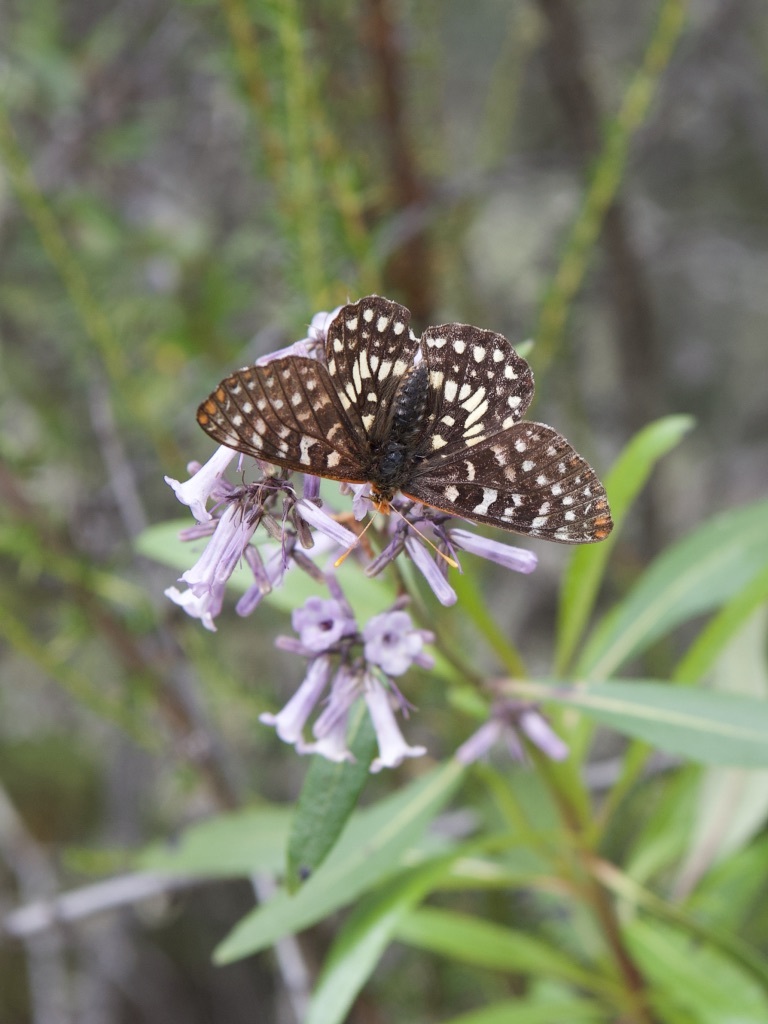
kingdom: Animalia
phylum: Arthropoda
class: Insecta
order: Lepidoptera
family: Nymphalidae
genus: Occidryas
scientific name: Occidryas chalcedona
